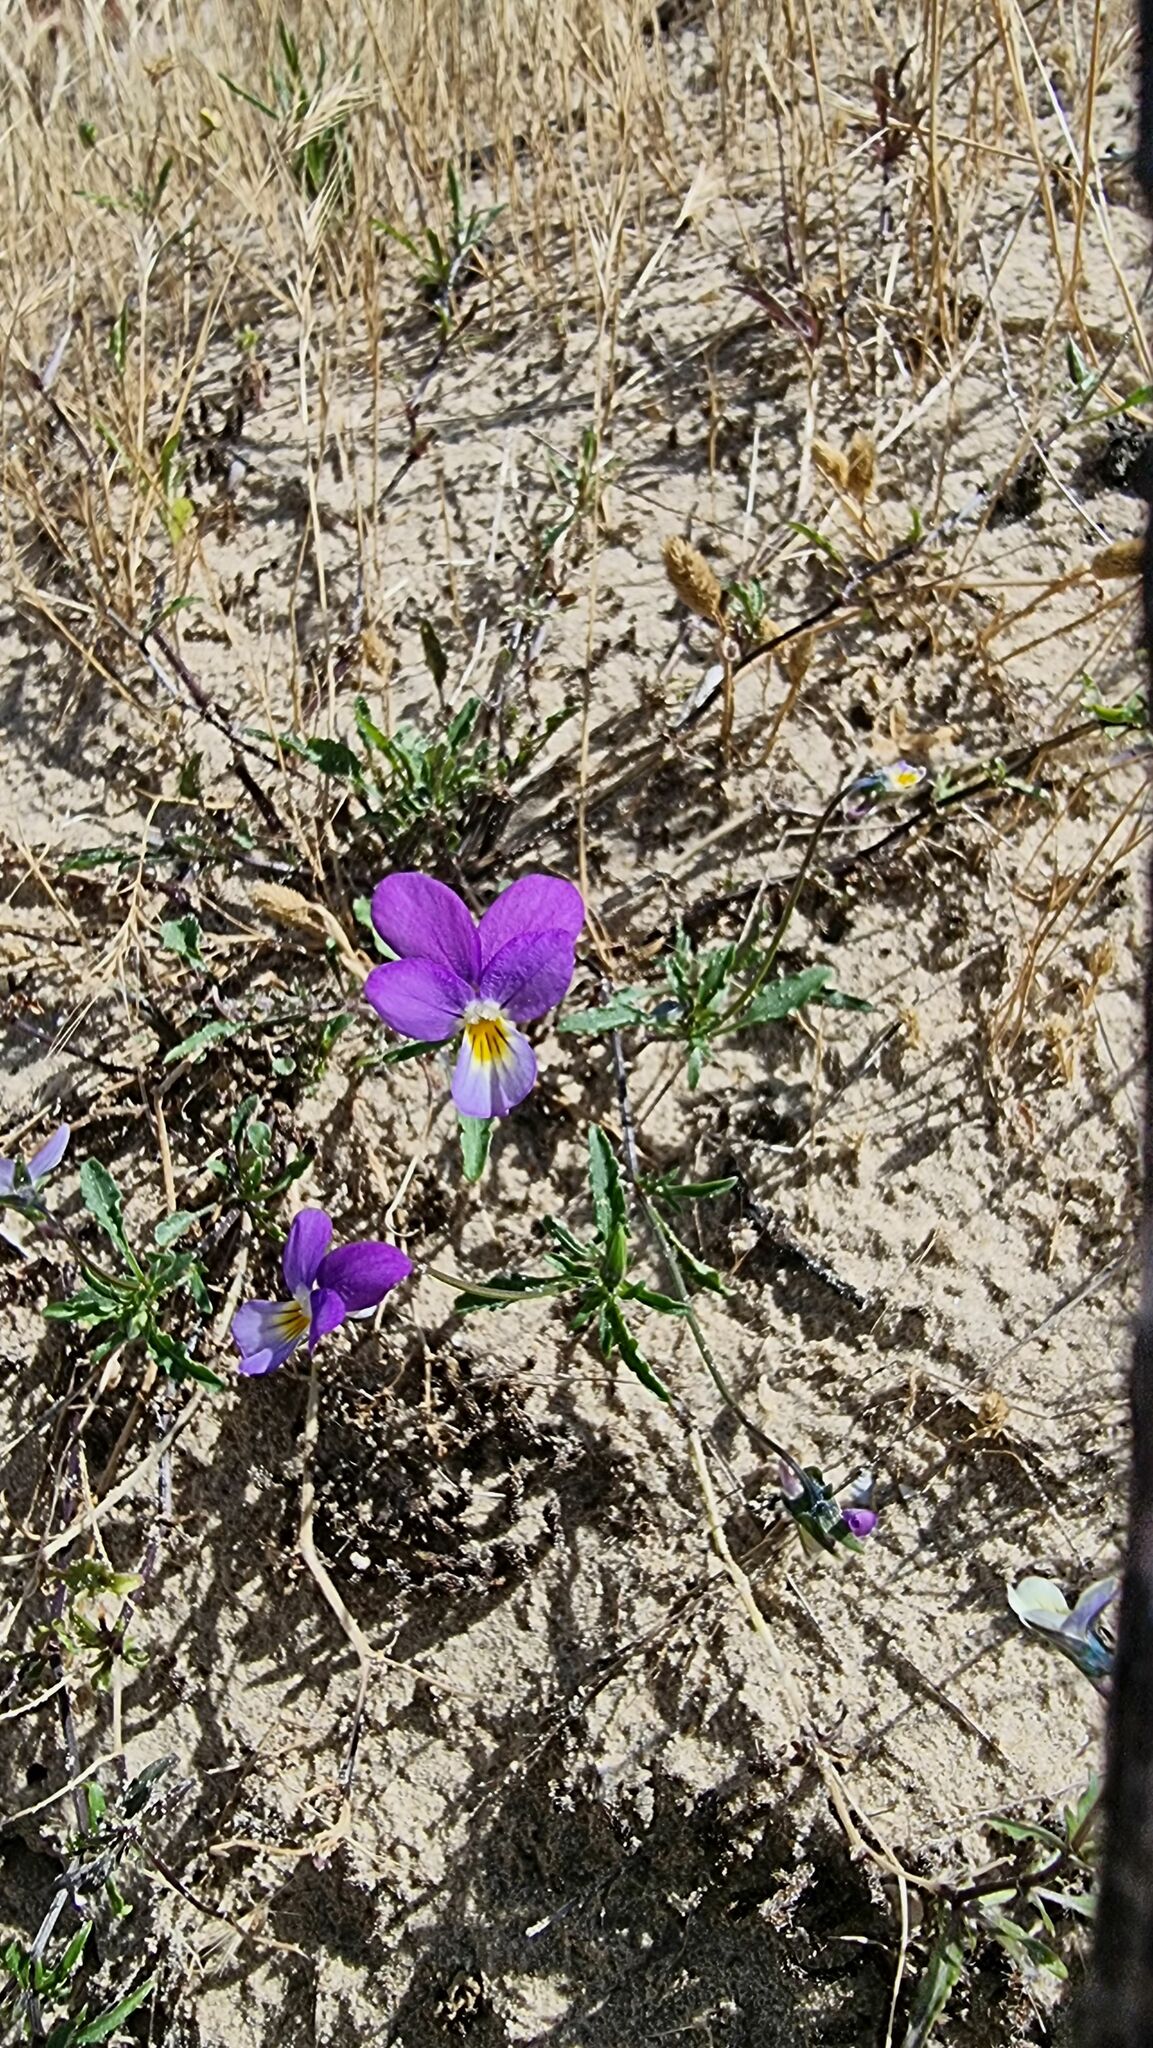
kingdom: Plantae
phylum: Tracheophyta
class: Magnoliopsida
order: Malpighiales
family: Violaceae
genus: Viola
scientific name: Viola tricolor
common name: Pansy
